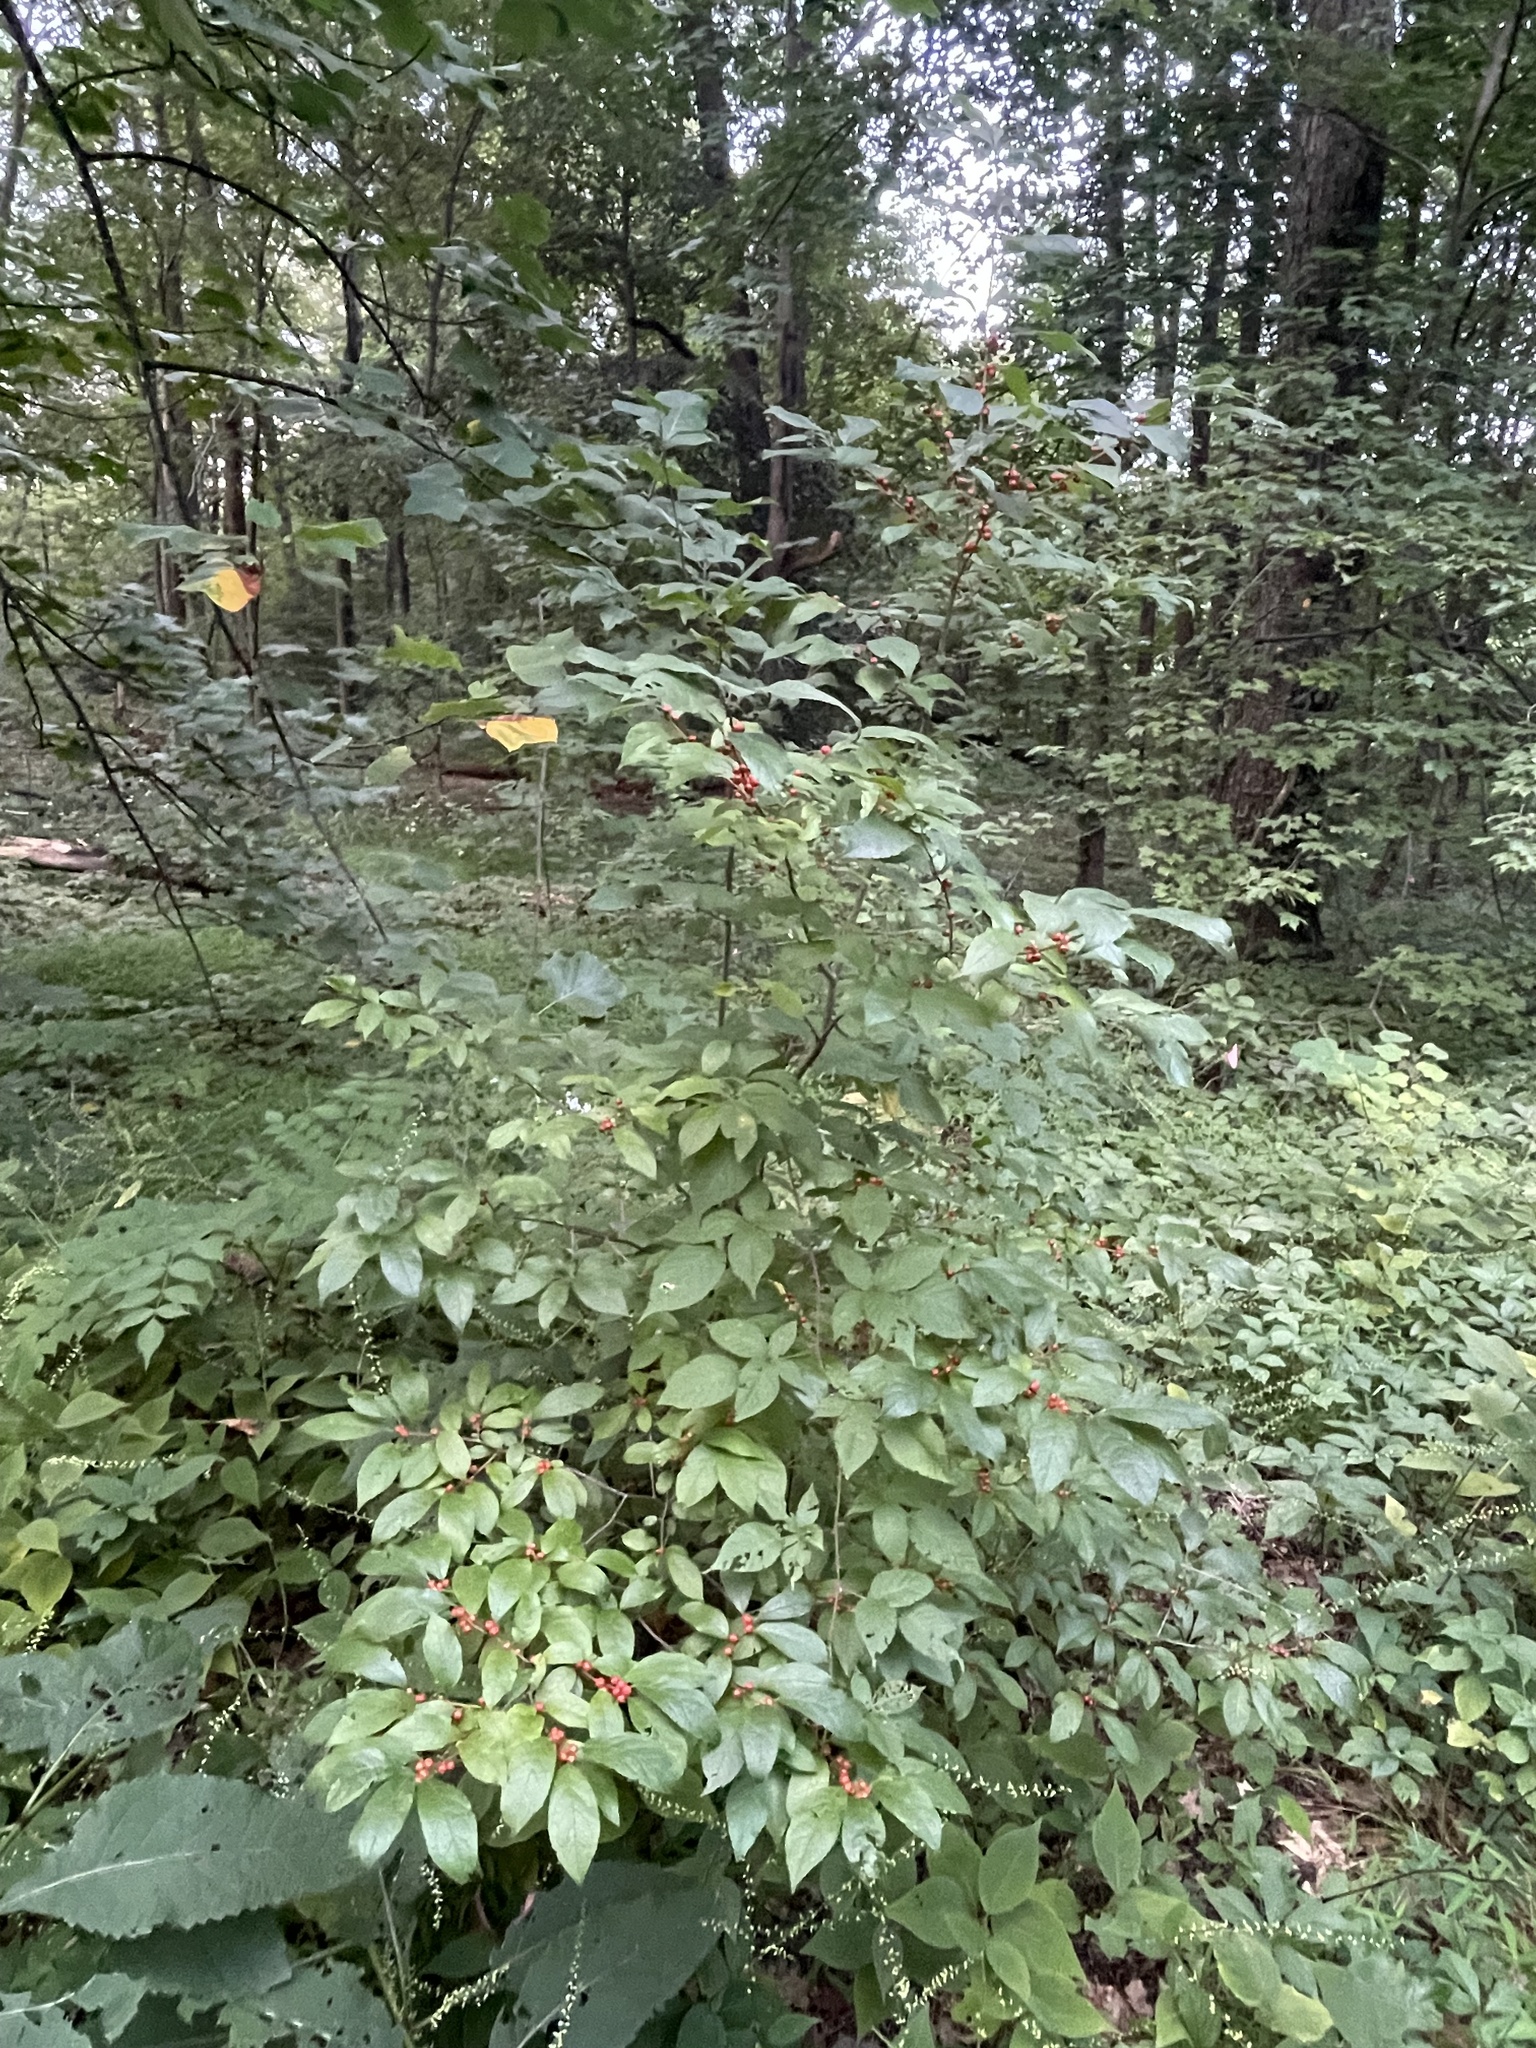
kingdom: Plantae
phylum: Tracheophyta
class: Magnoliopsida
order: Aquifoliales
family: Aquifoliaceae
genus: Ilex
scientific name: Ilex verticillata
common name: Virginia winterberry
